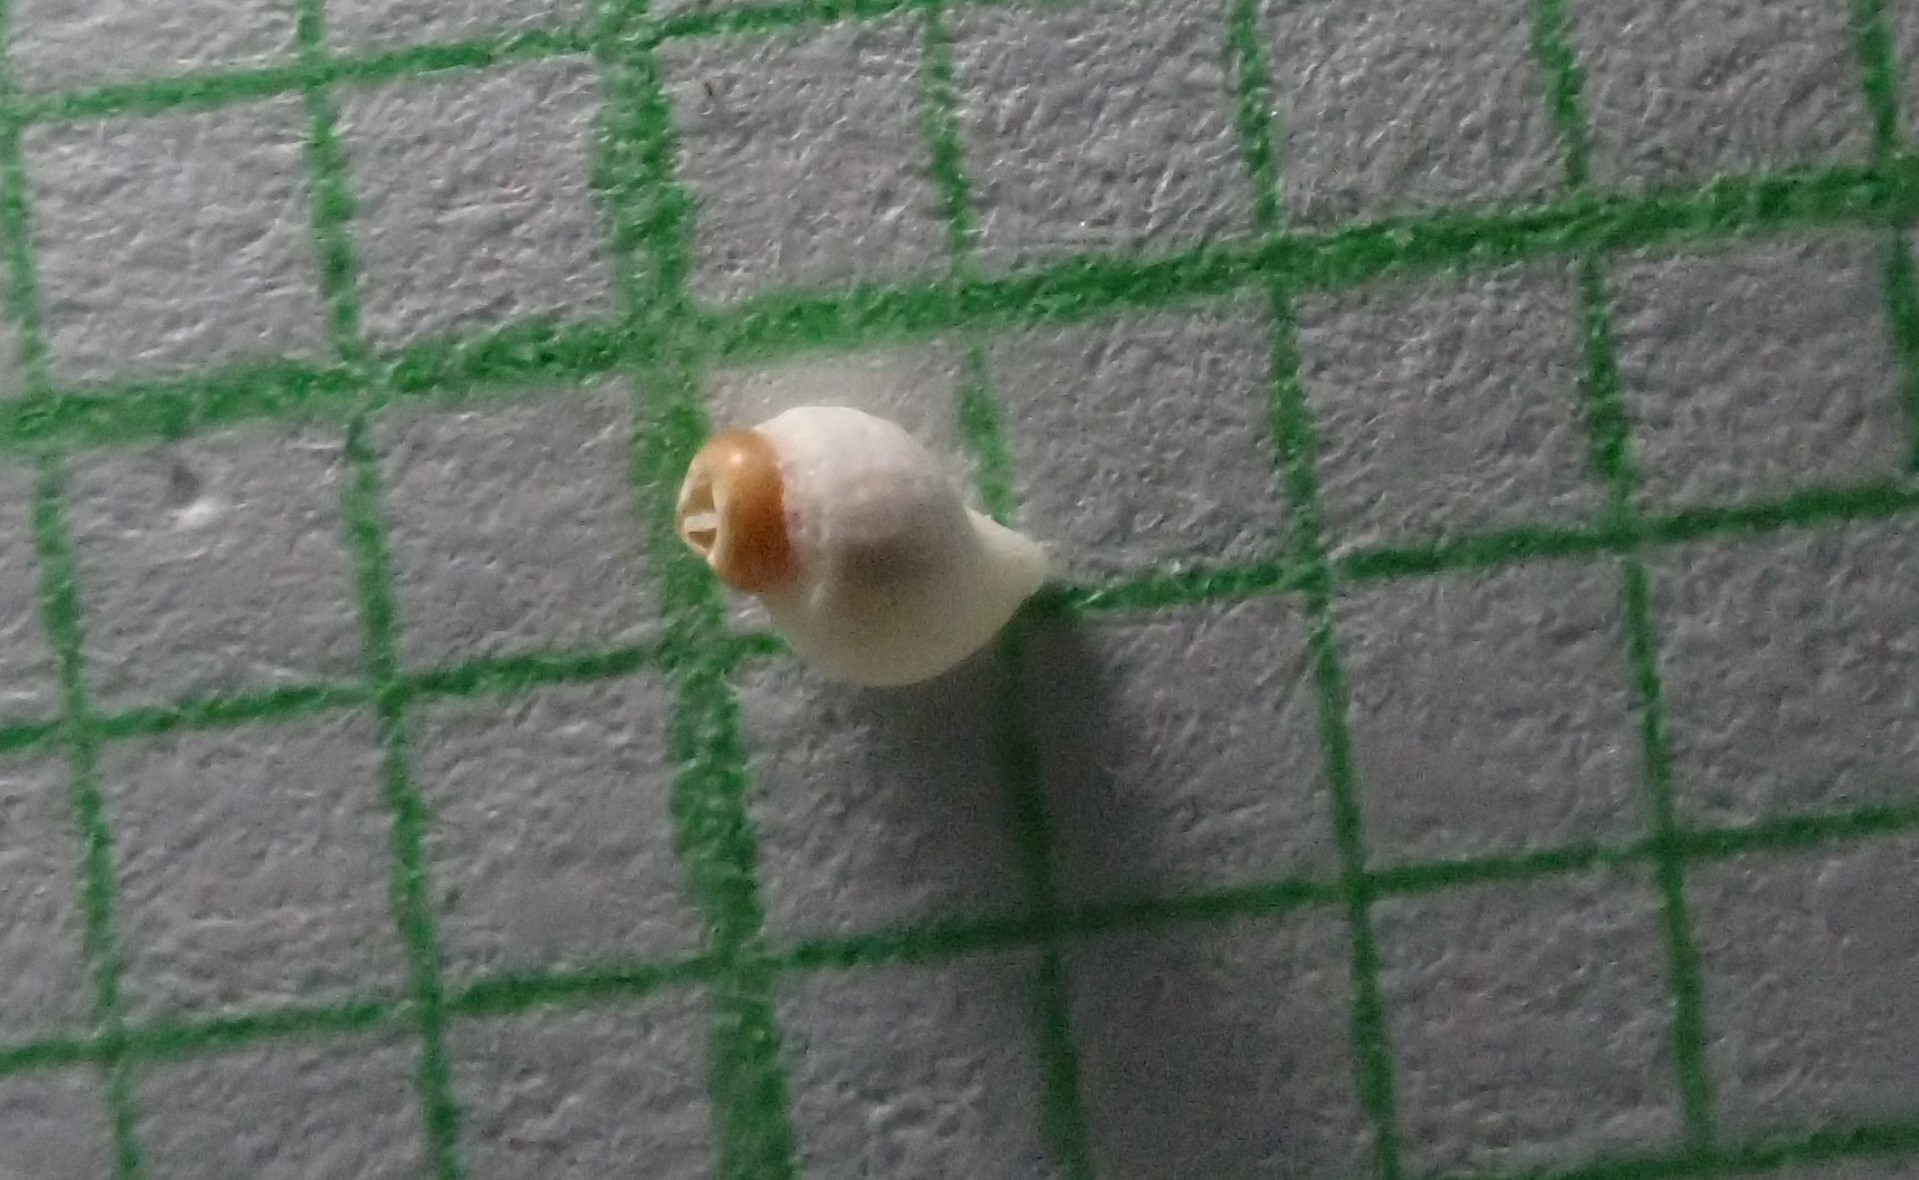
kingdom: Animalia
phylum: Mollusca
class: Gastropoda
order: Neogastropoda
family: Muricidae
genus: Dicathais
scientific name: Dicathais orbita
